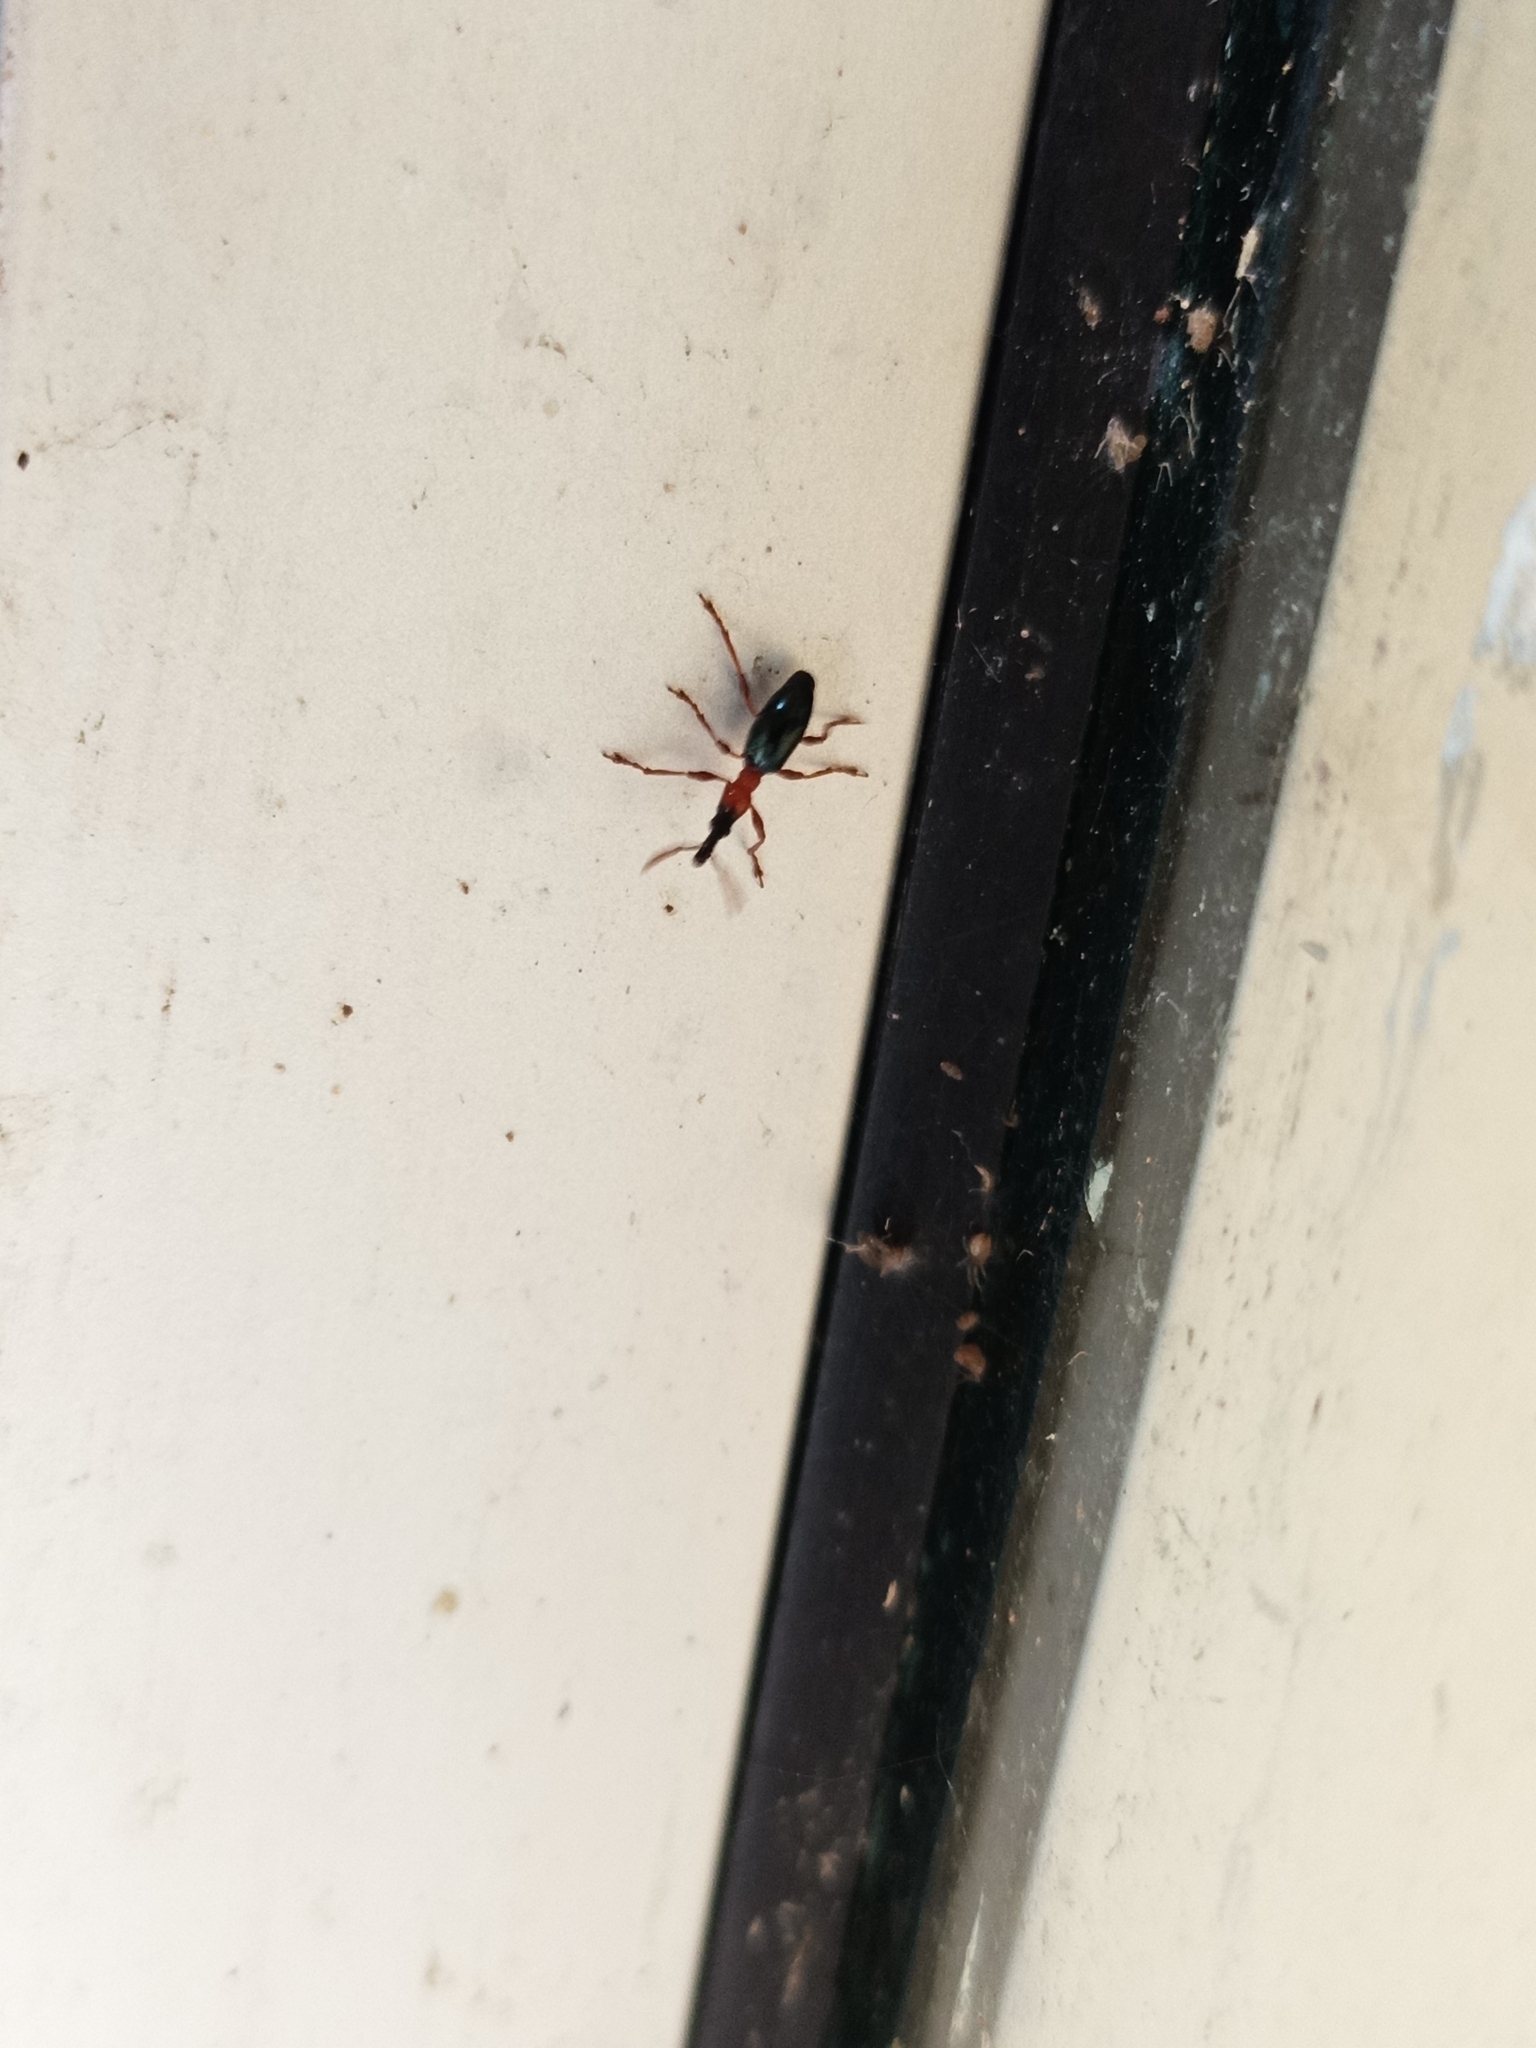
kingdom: Animalia
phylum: Arthropoda
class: Insecta
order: Coleoptera
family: Brentidae
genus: Cylas
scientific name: Cylas formicarius
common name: Sweetpotato weevil
